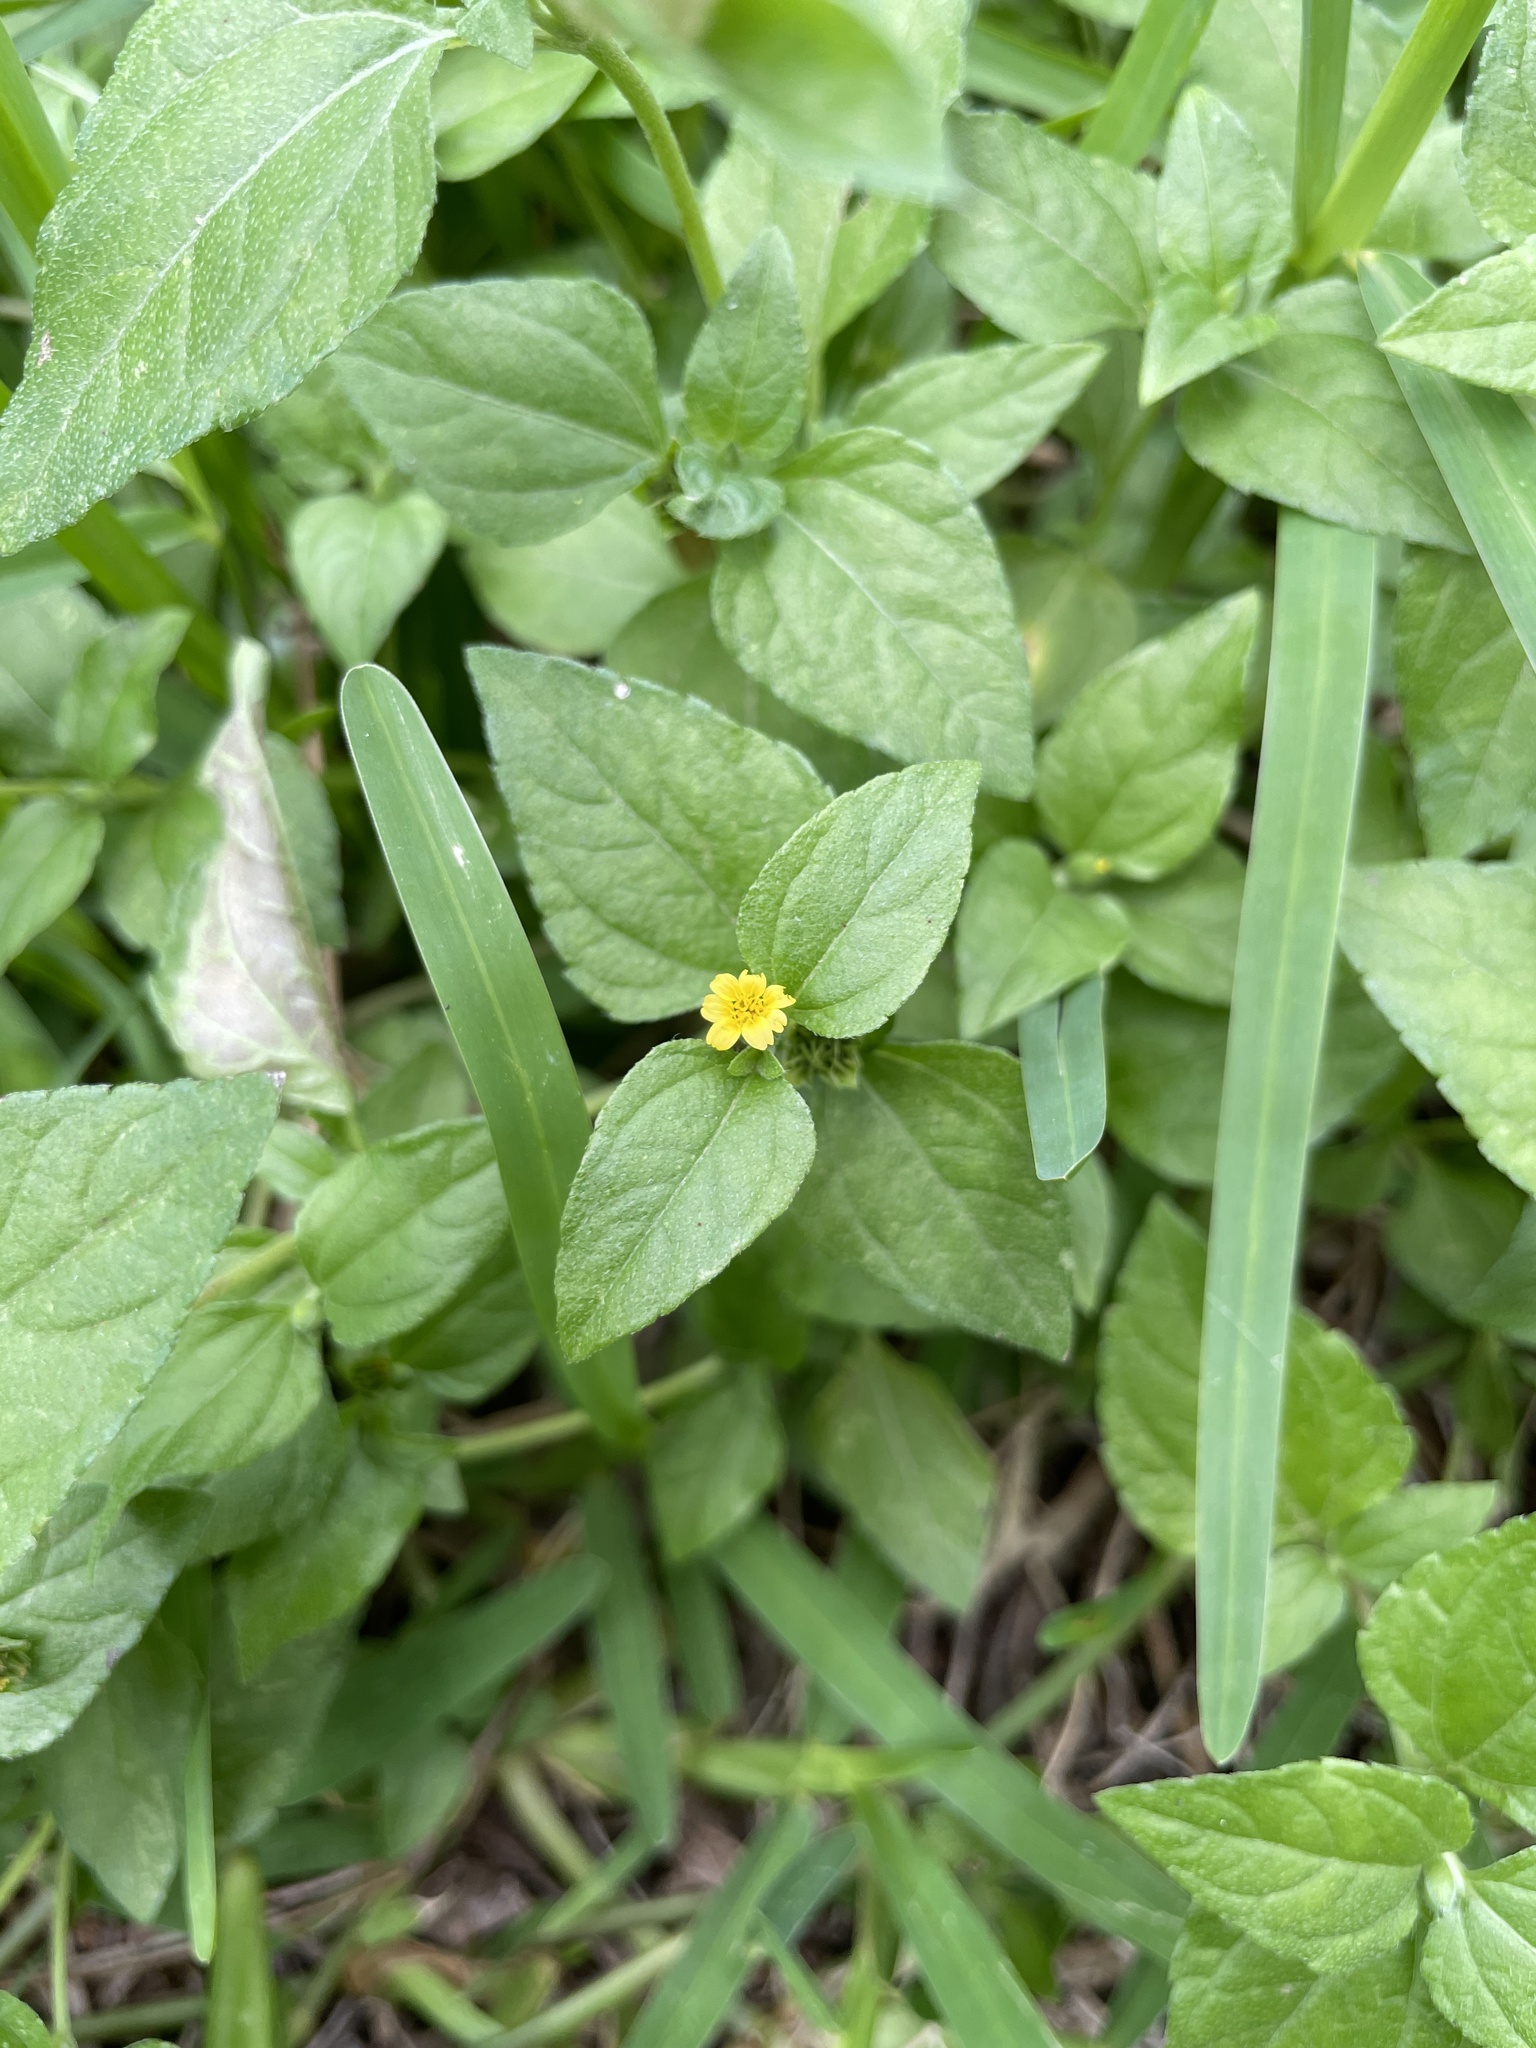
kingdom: Plantae
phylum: Tracheophyta
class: Magnoliopsida
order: Asterales
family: Asteraceae
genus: Calyptocarpus
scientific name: Calyptocarpus vialis
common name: Straggler daisy
